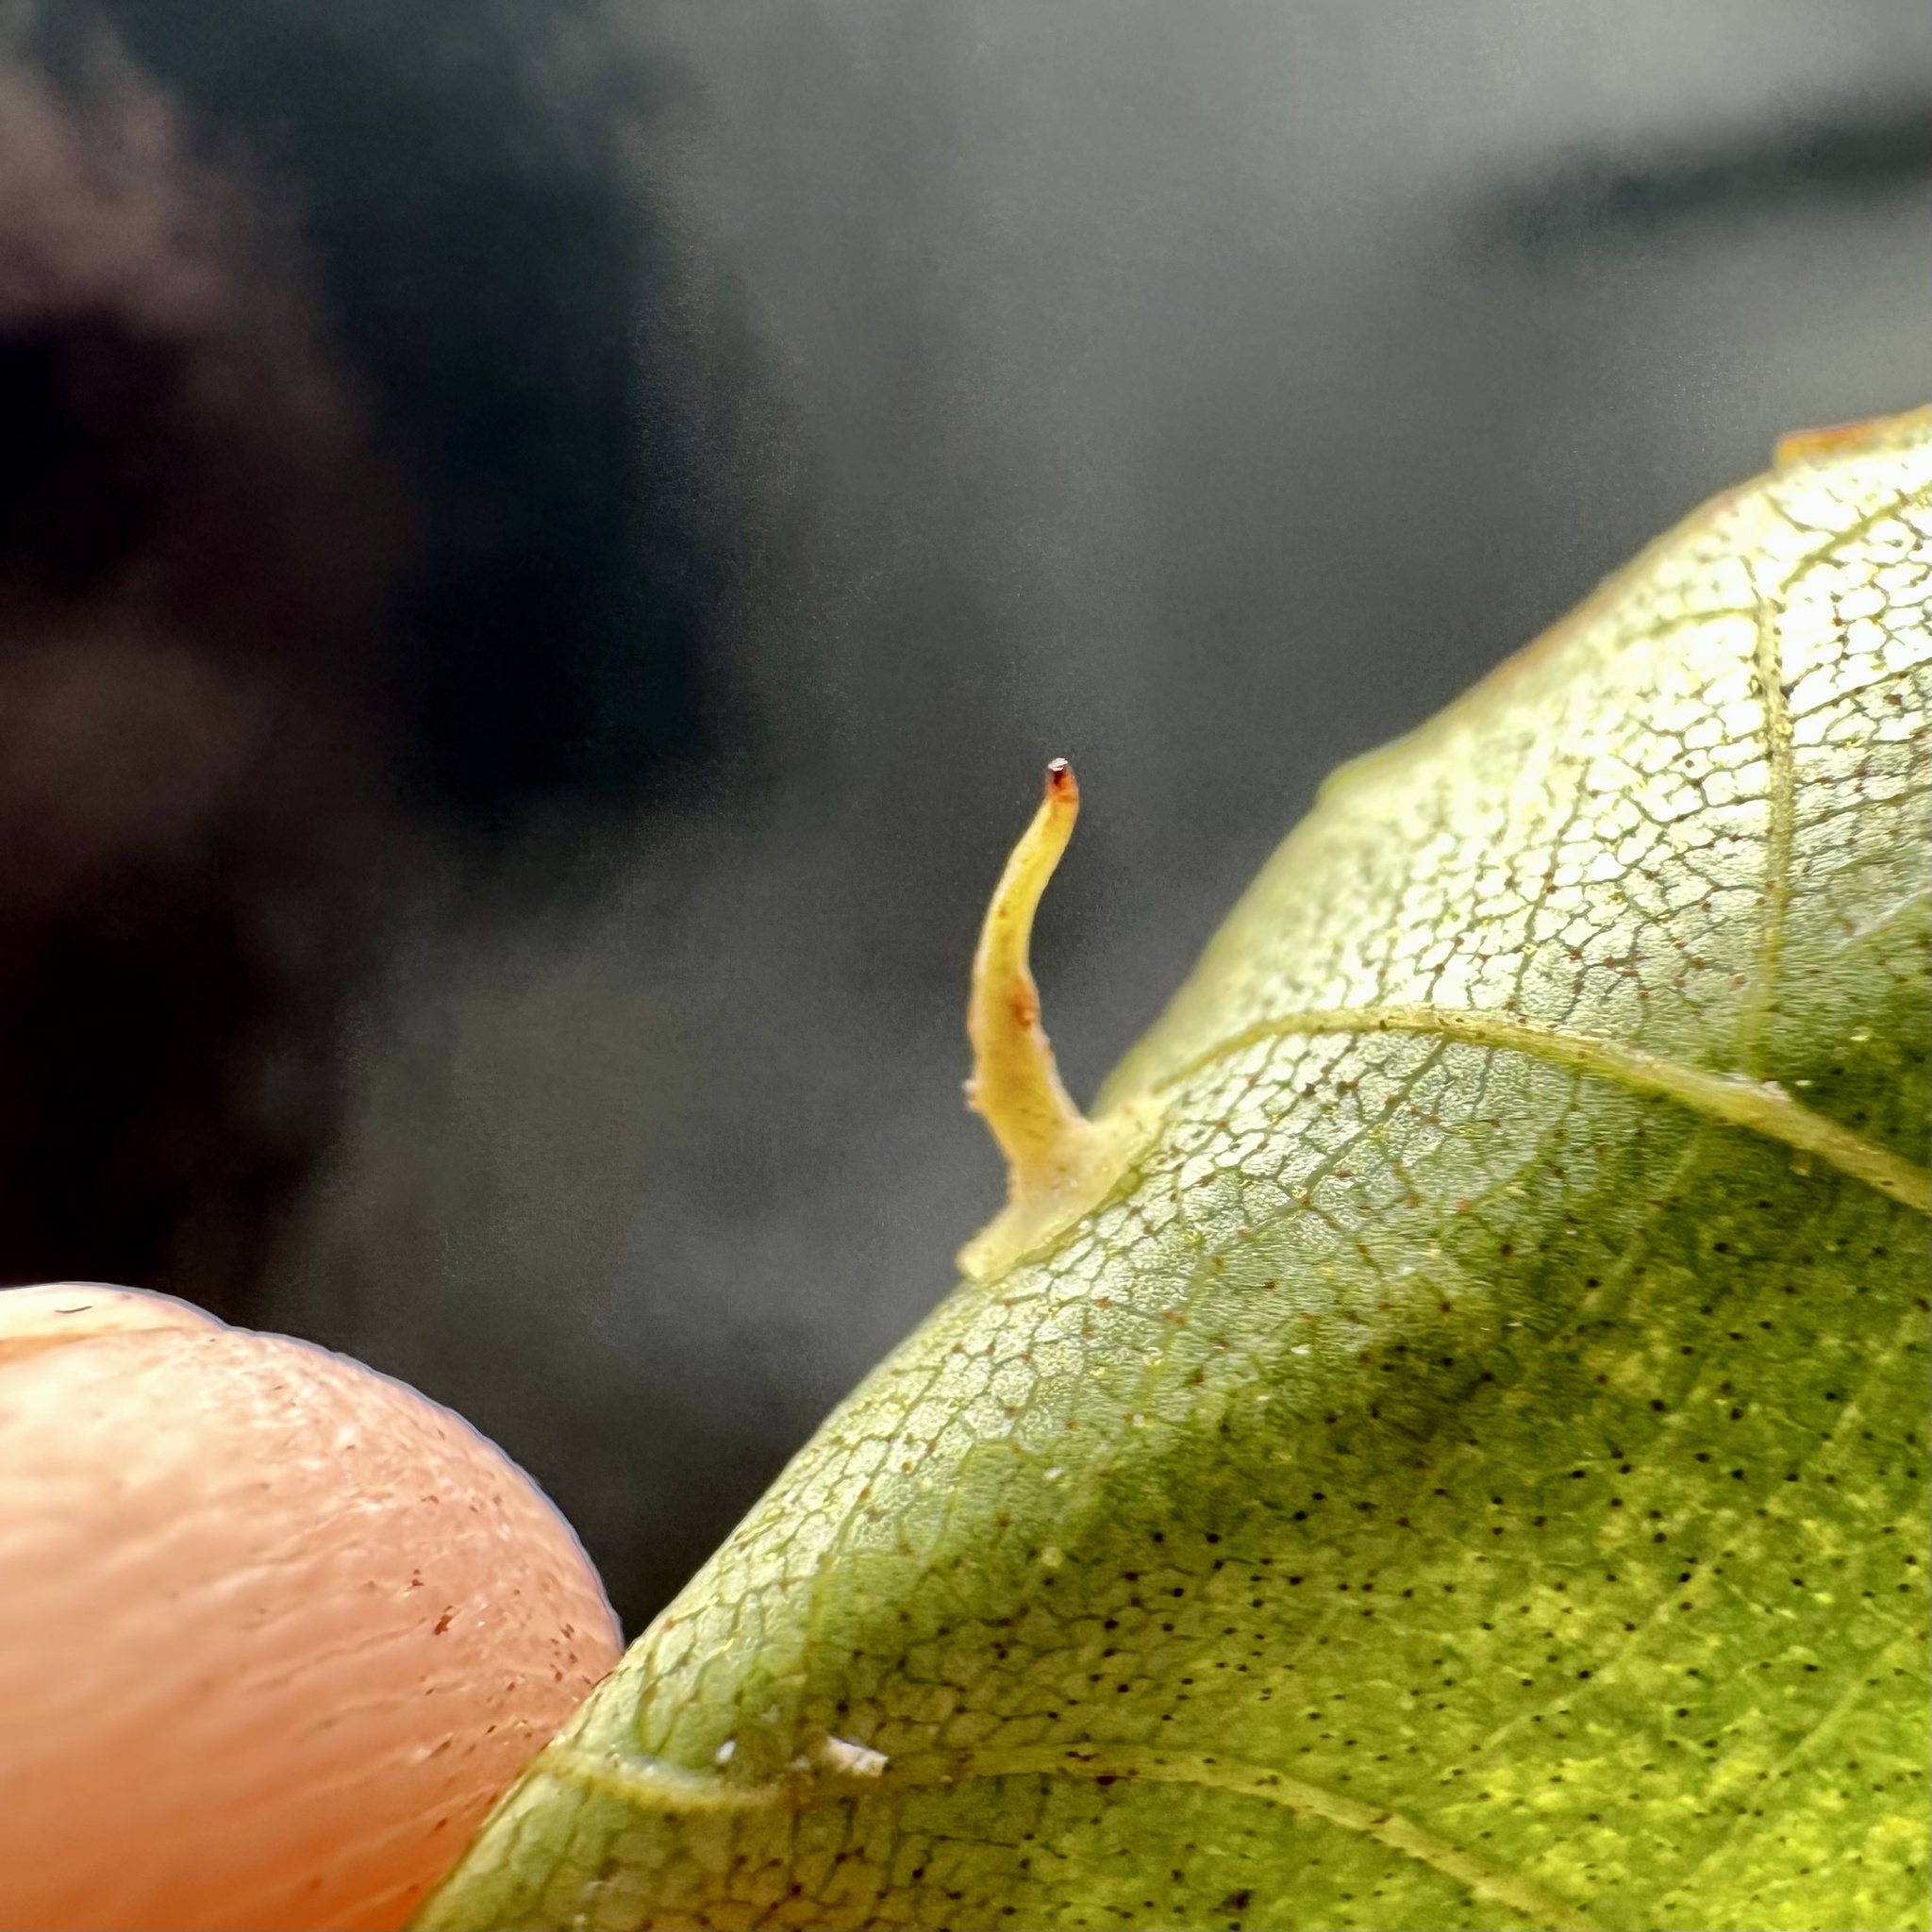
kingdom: Animalia
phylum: Arthropoda
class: Insecta
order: Diptera
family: Cecidomyiidae
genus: Caryomyia
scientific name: Caryomyia stellata
